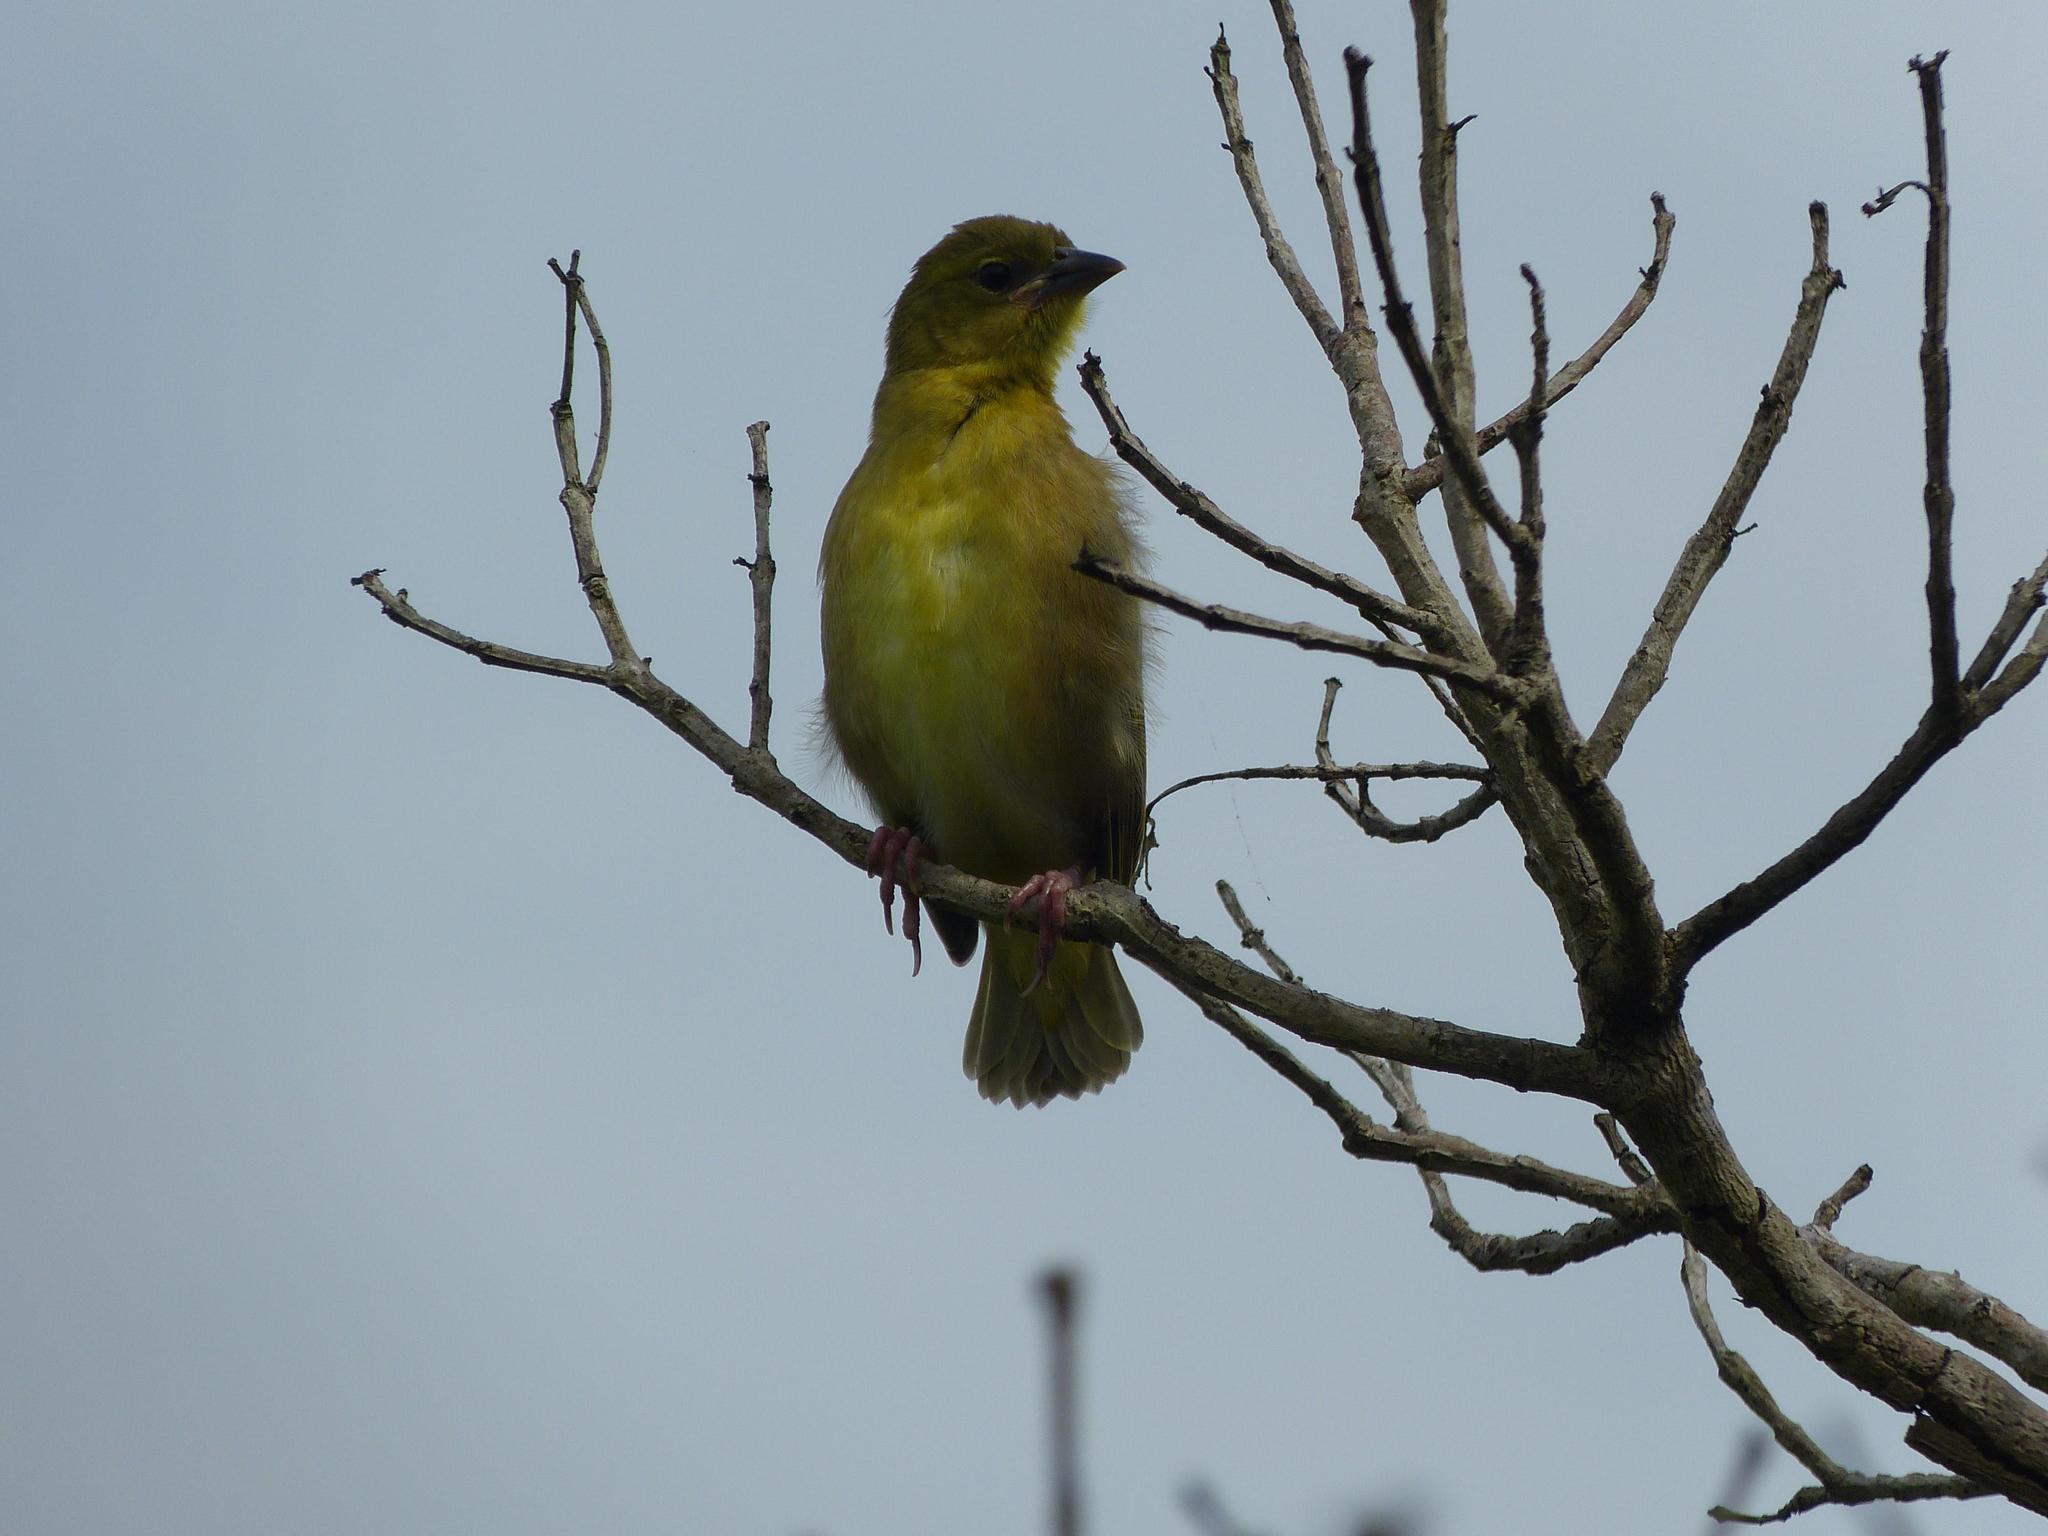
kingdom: Animalia
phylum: Chordata
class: Aves
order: Passeriformes
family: Ploceidae
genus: Ploceus
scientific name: Ploceus cucullatus
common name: Village weaver
